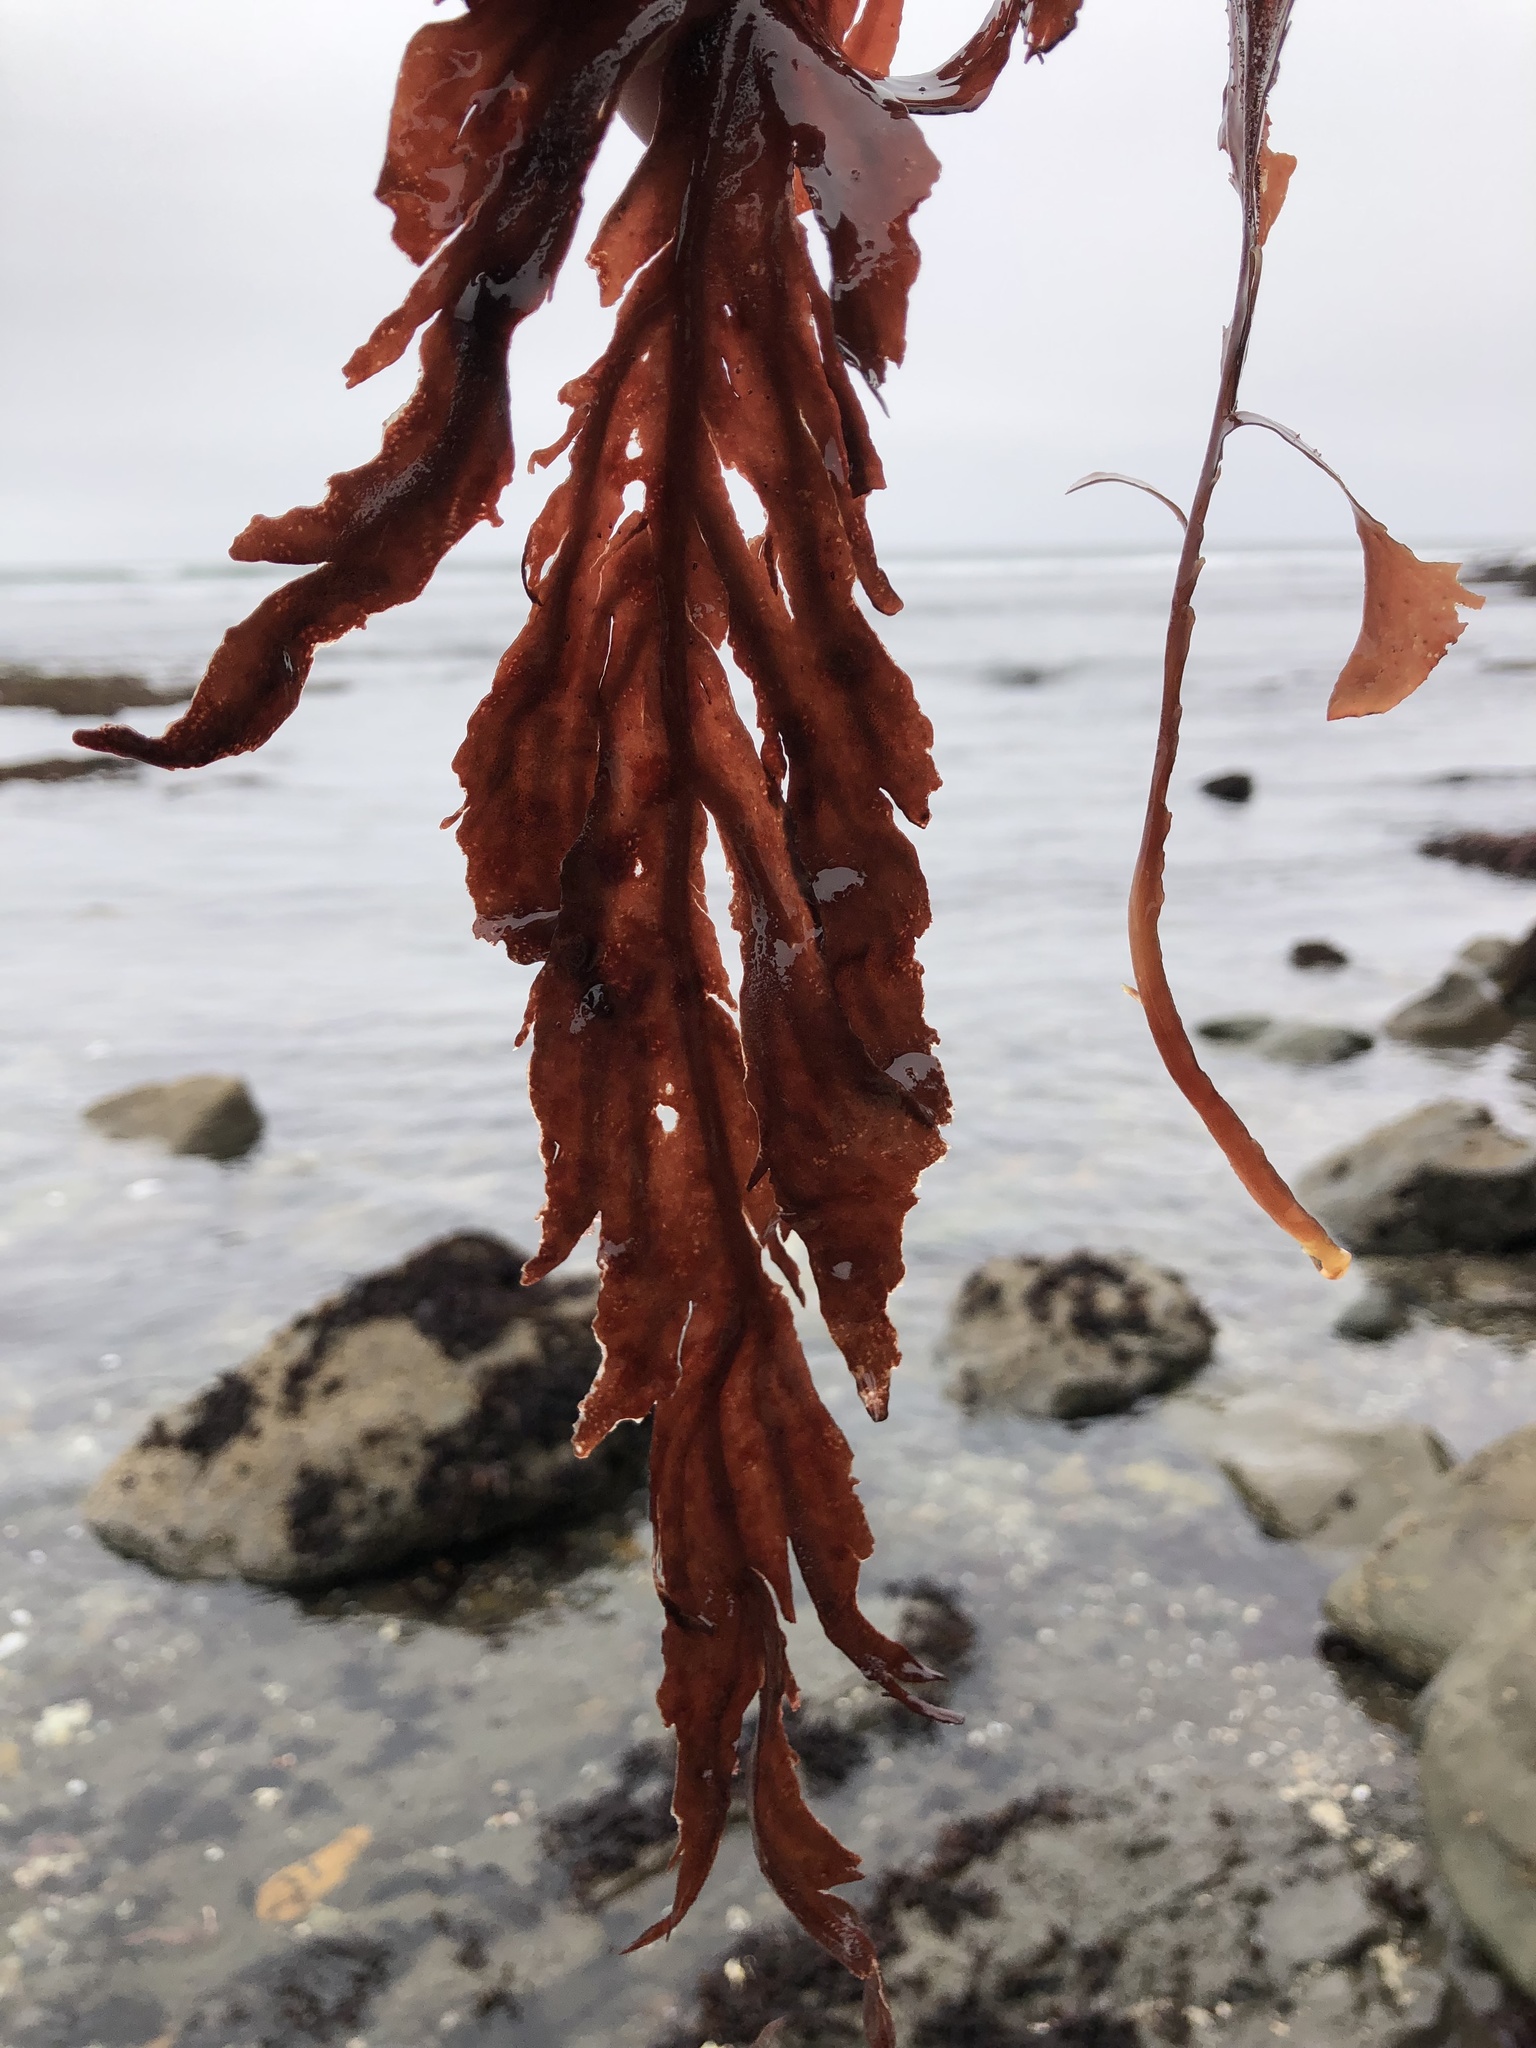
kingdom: Plantae
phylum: Rhodophyta
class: Florideophyceae
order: Gigartinales
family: Kallymeniaceae
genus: Erythrophyllum
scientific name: Erythrophyllum delesserioides
